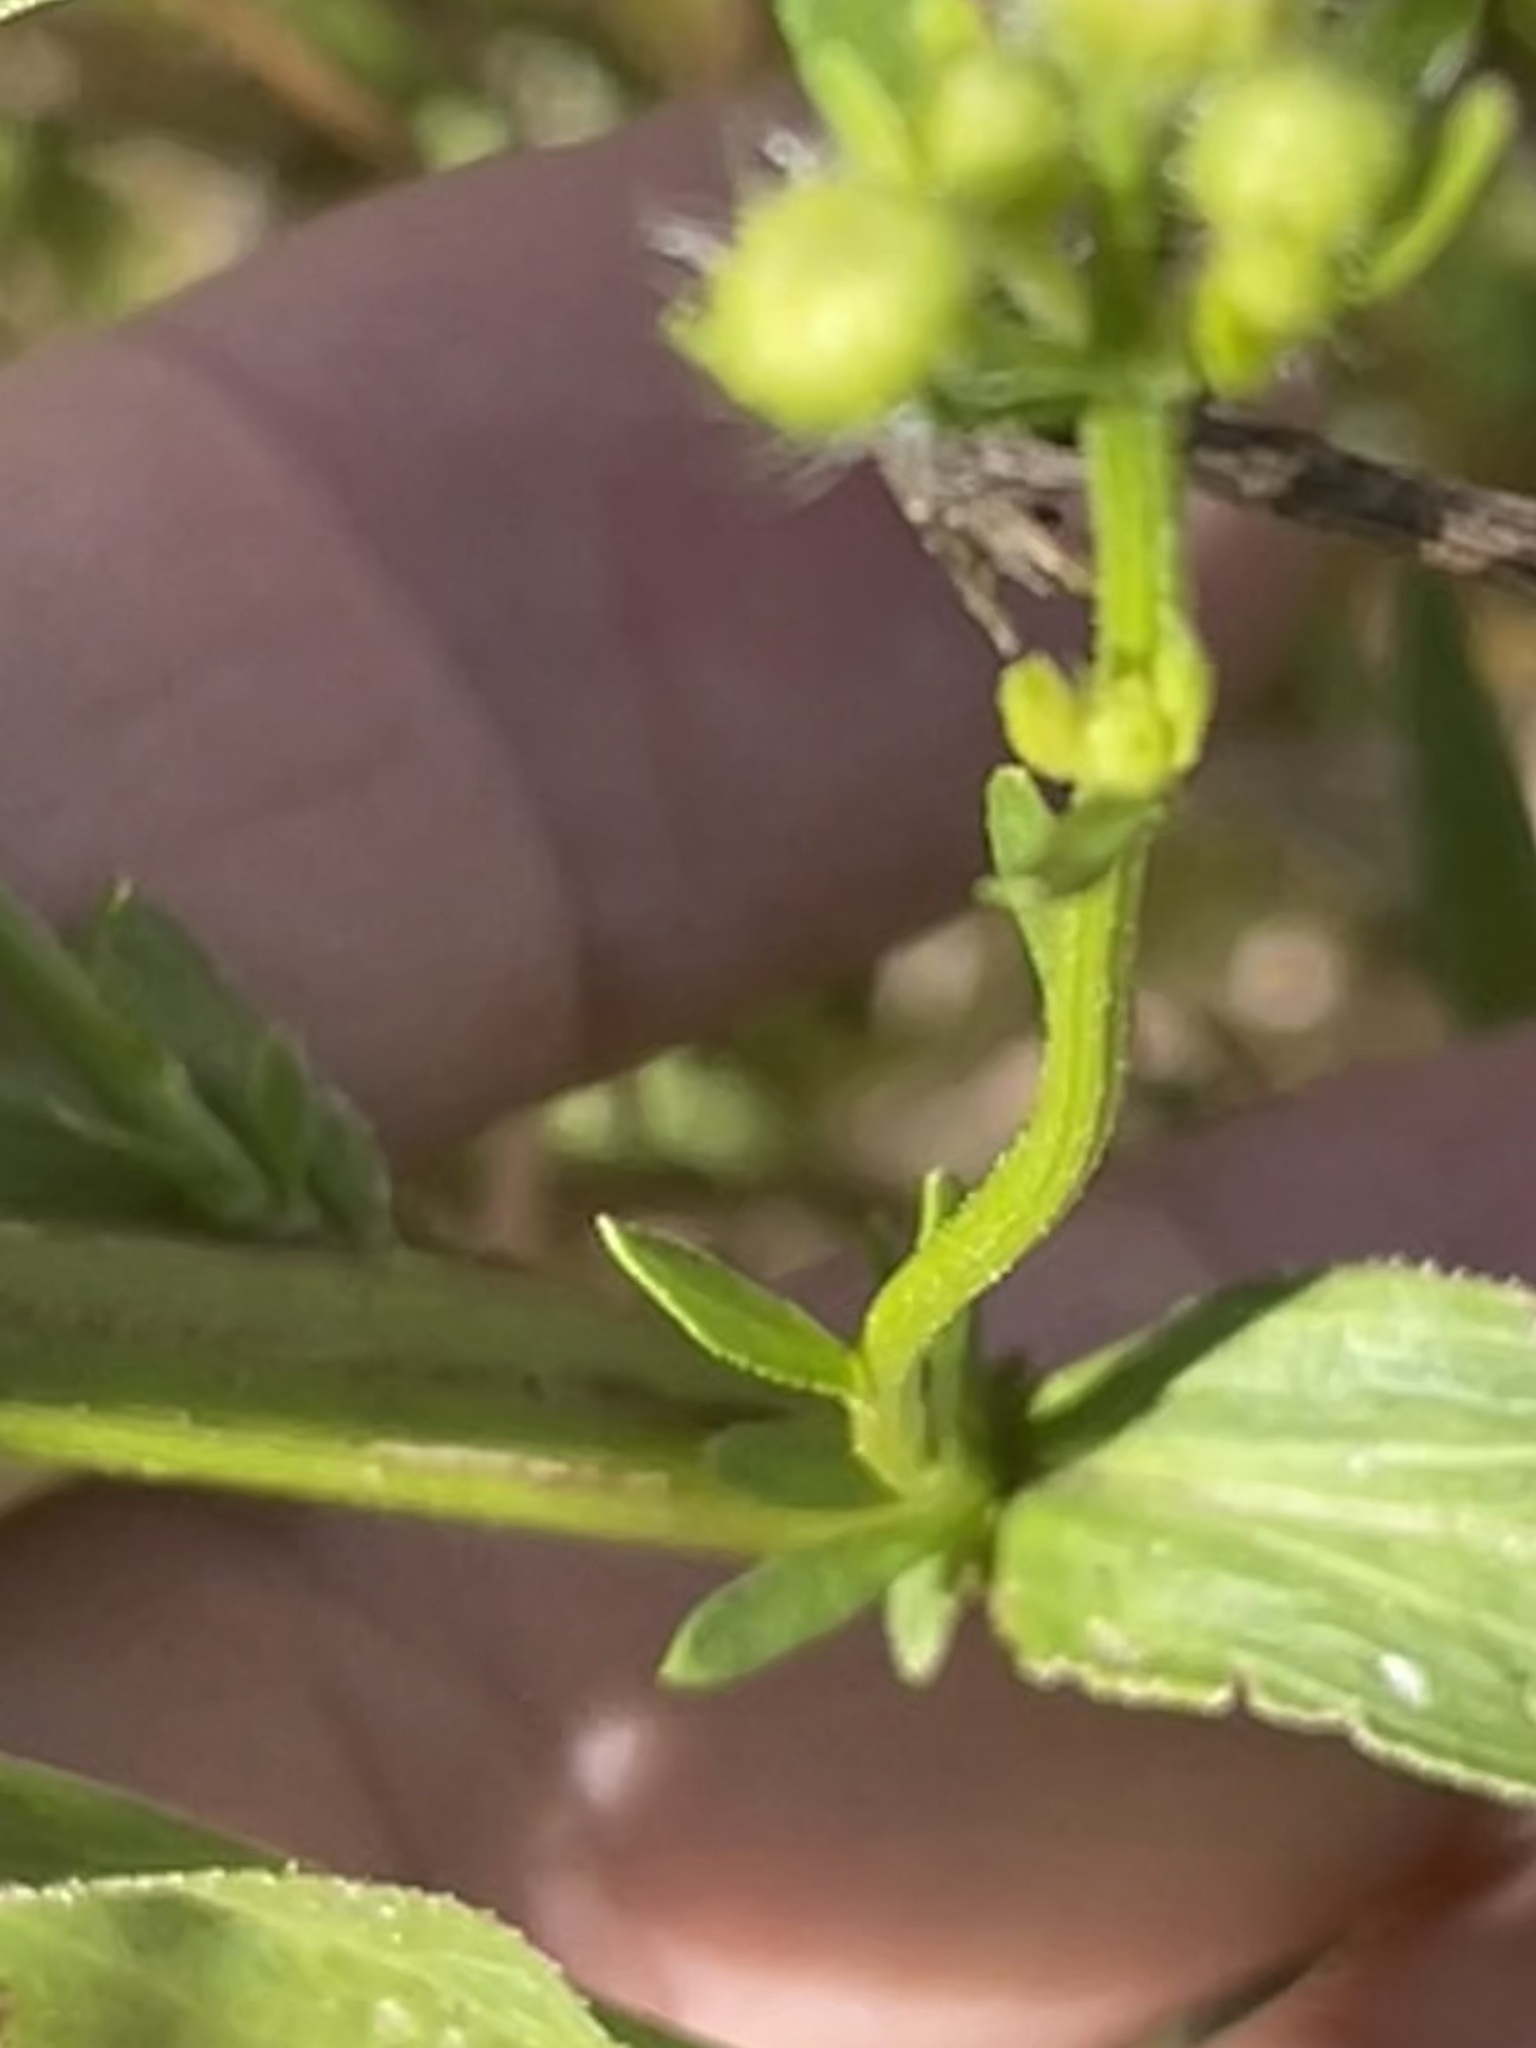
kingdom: Plantae
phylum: Tracheophyta
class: Magnoliopsida
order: Asterales
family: Asteraceae
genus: Erigeron
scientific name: Erigeron annuus
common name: Tall fleabane
